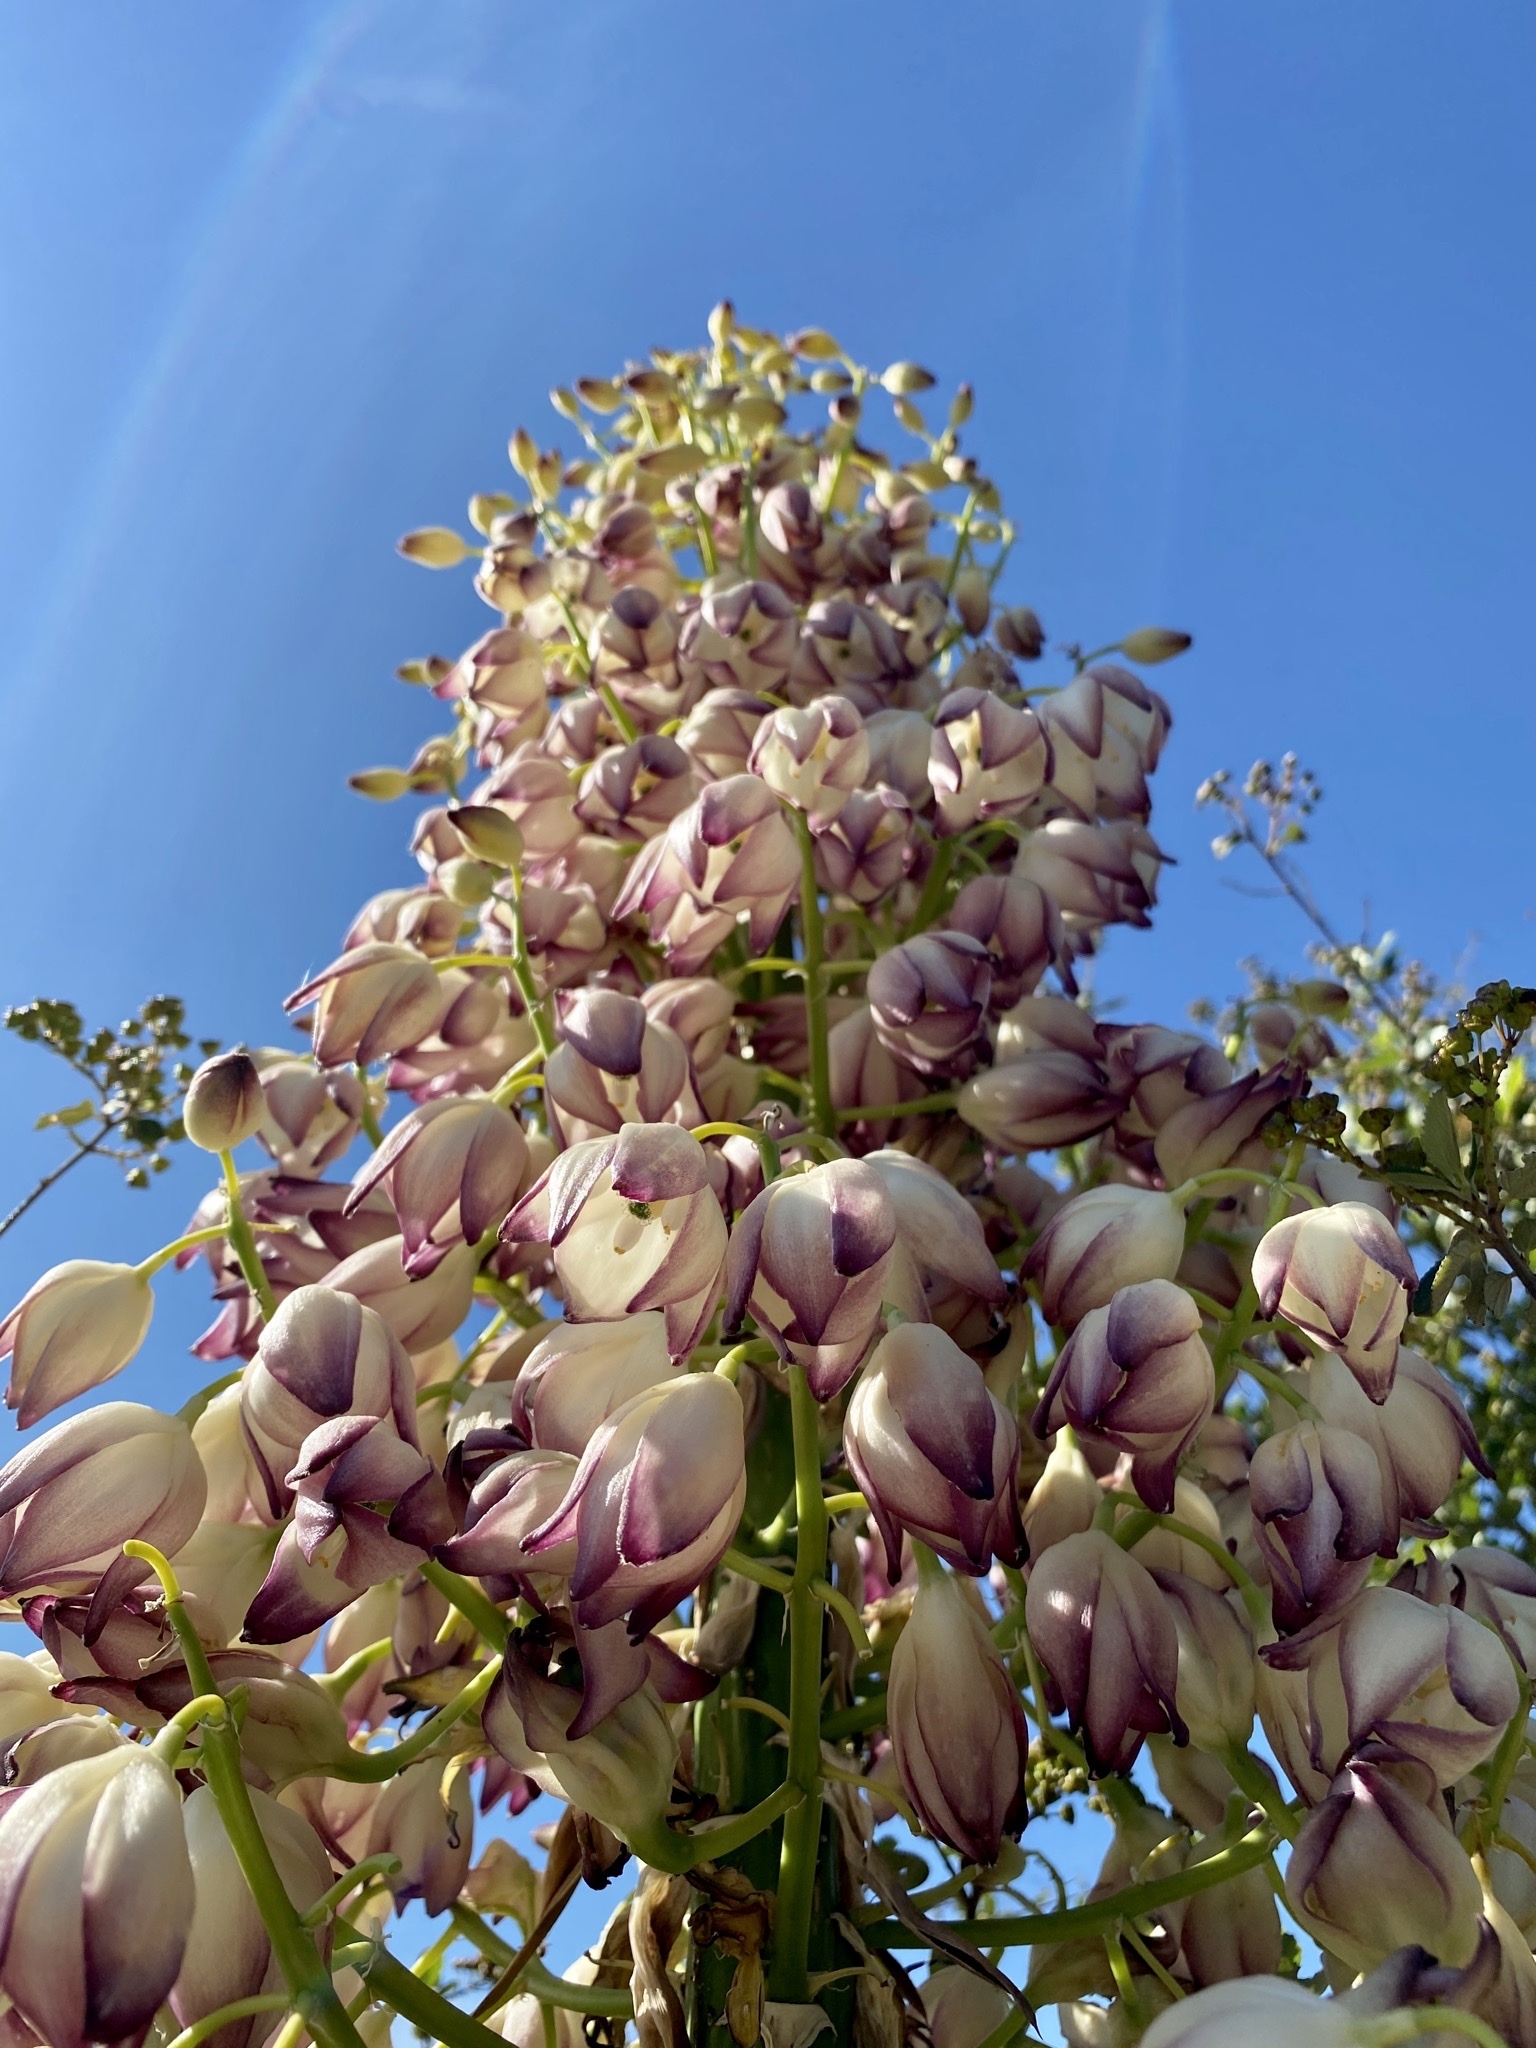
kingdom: Plantae
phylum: Tracheophyta
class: Liliopsida
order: Asparagales
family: Asparagaceae
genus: Hesperoyucca
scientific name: Hesperoyucca whipplei
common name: Our lord's-candle
